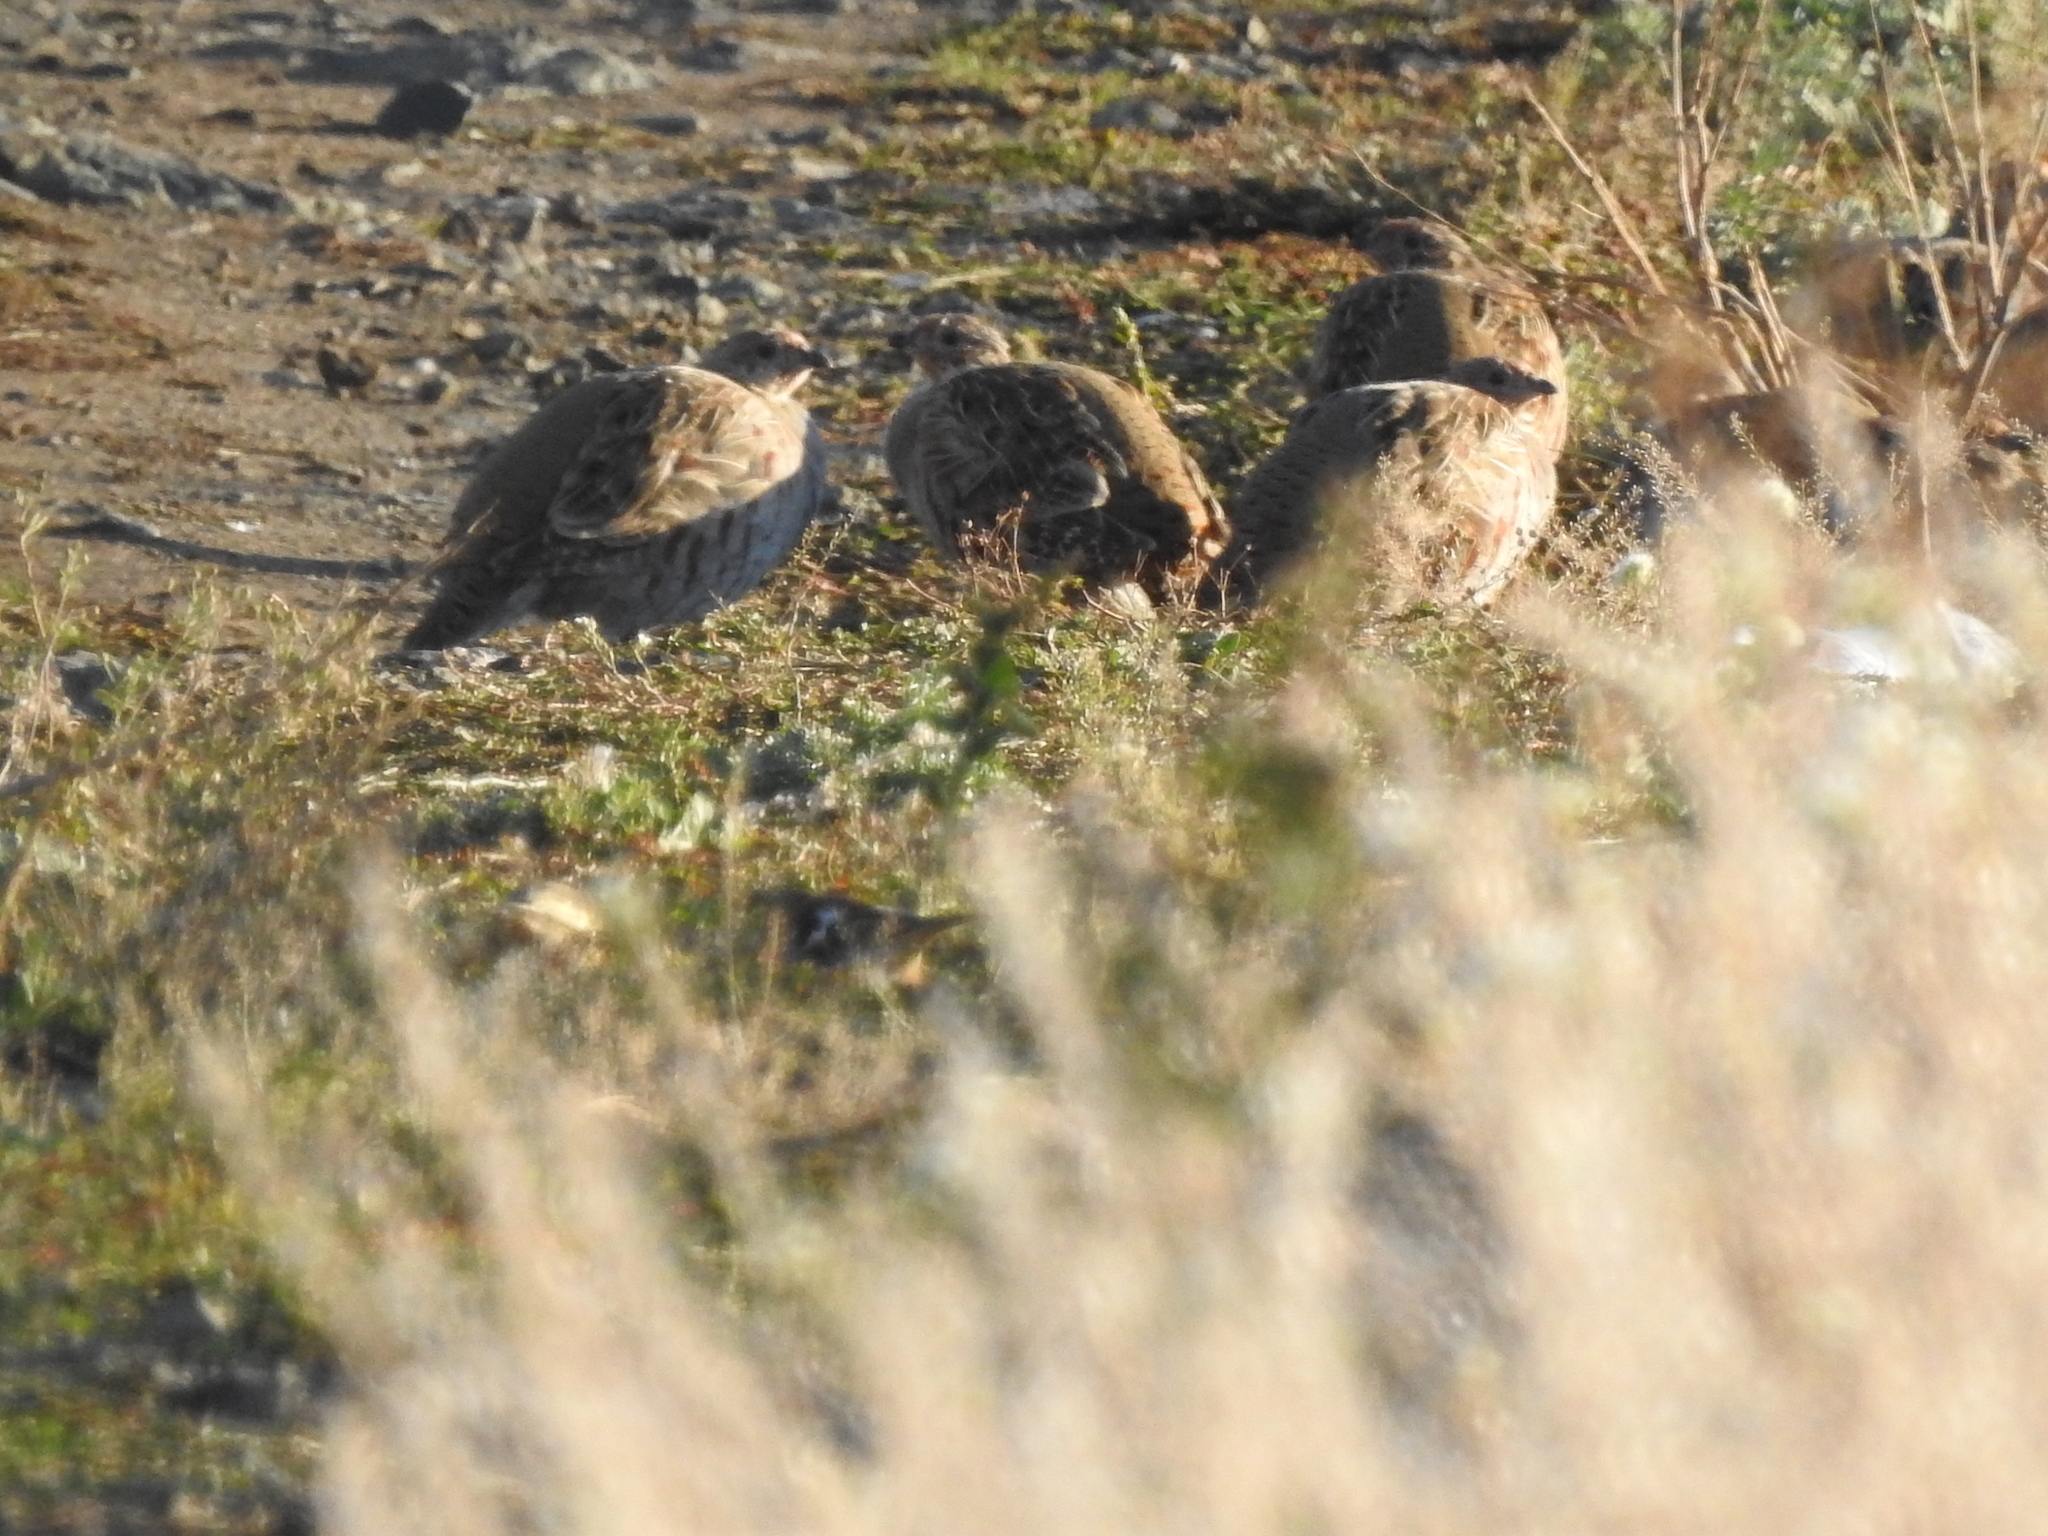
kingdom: Animalia
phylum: Chordata
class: Aves
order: Galliformes
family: Phasianidae
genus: Perdix
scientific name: Perdix perdix
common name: Grey partridge
